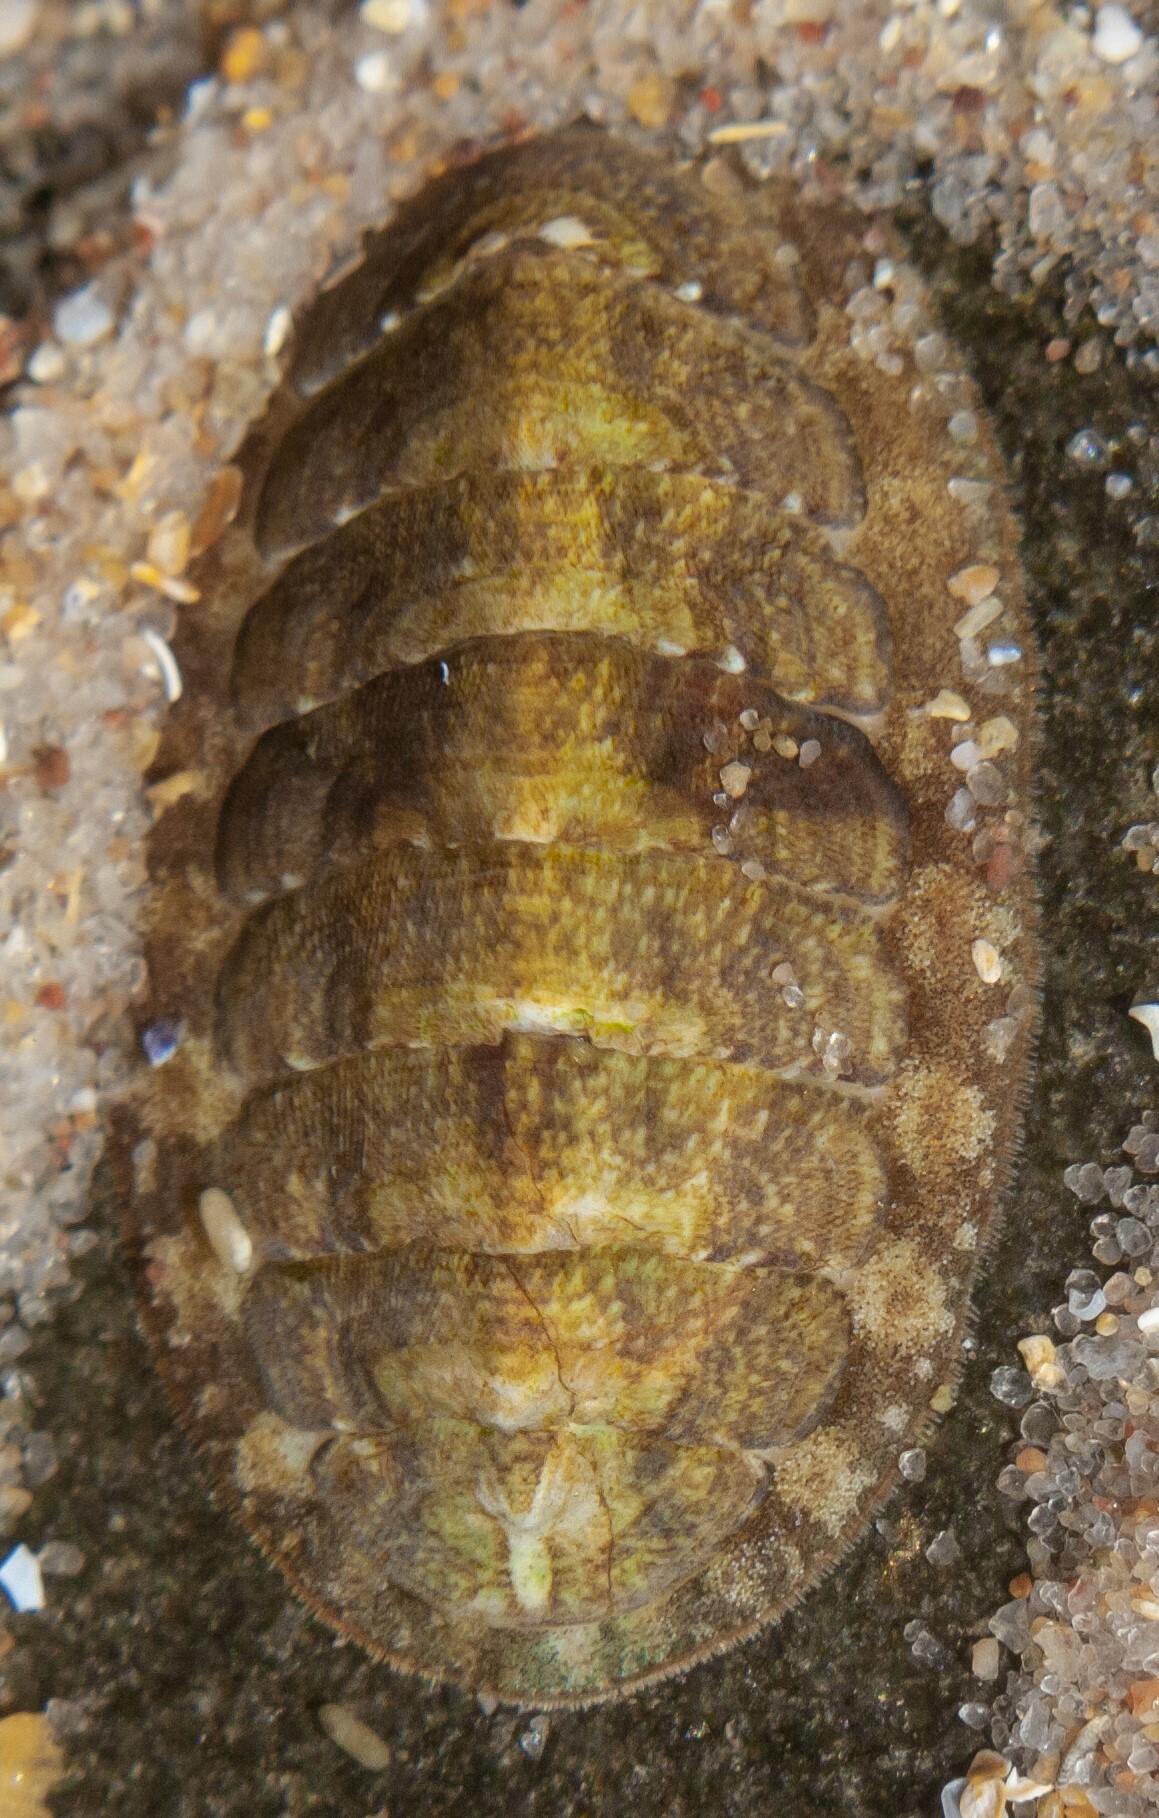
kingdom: Animalia
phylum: Mollusca
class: Polyplacophora
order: Chitonida
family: Tonicellidae
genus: Lepidochitona
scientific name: Lepidochitona cinerea
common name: Cinereous chiton
